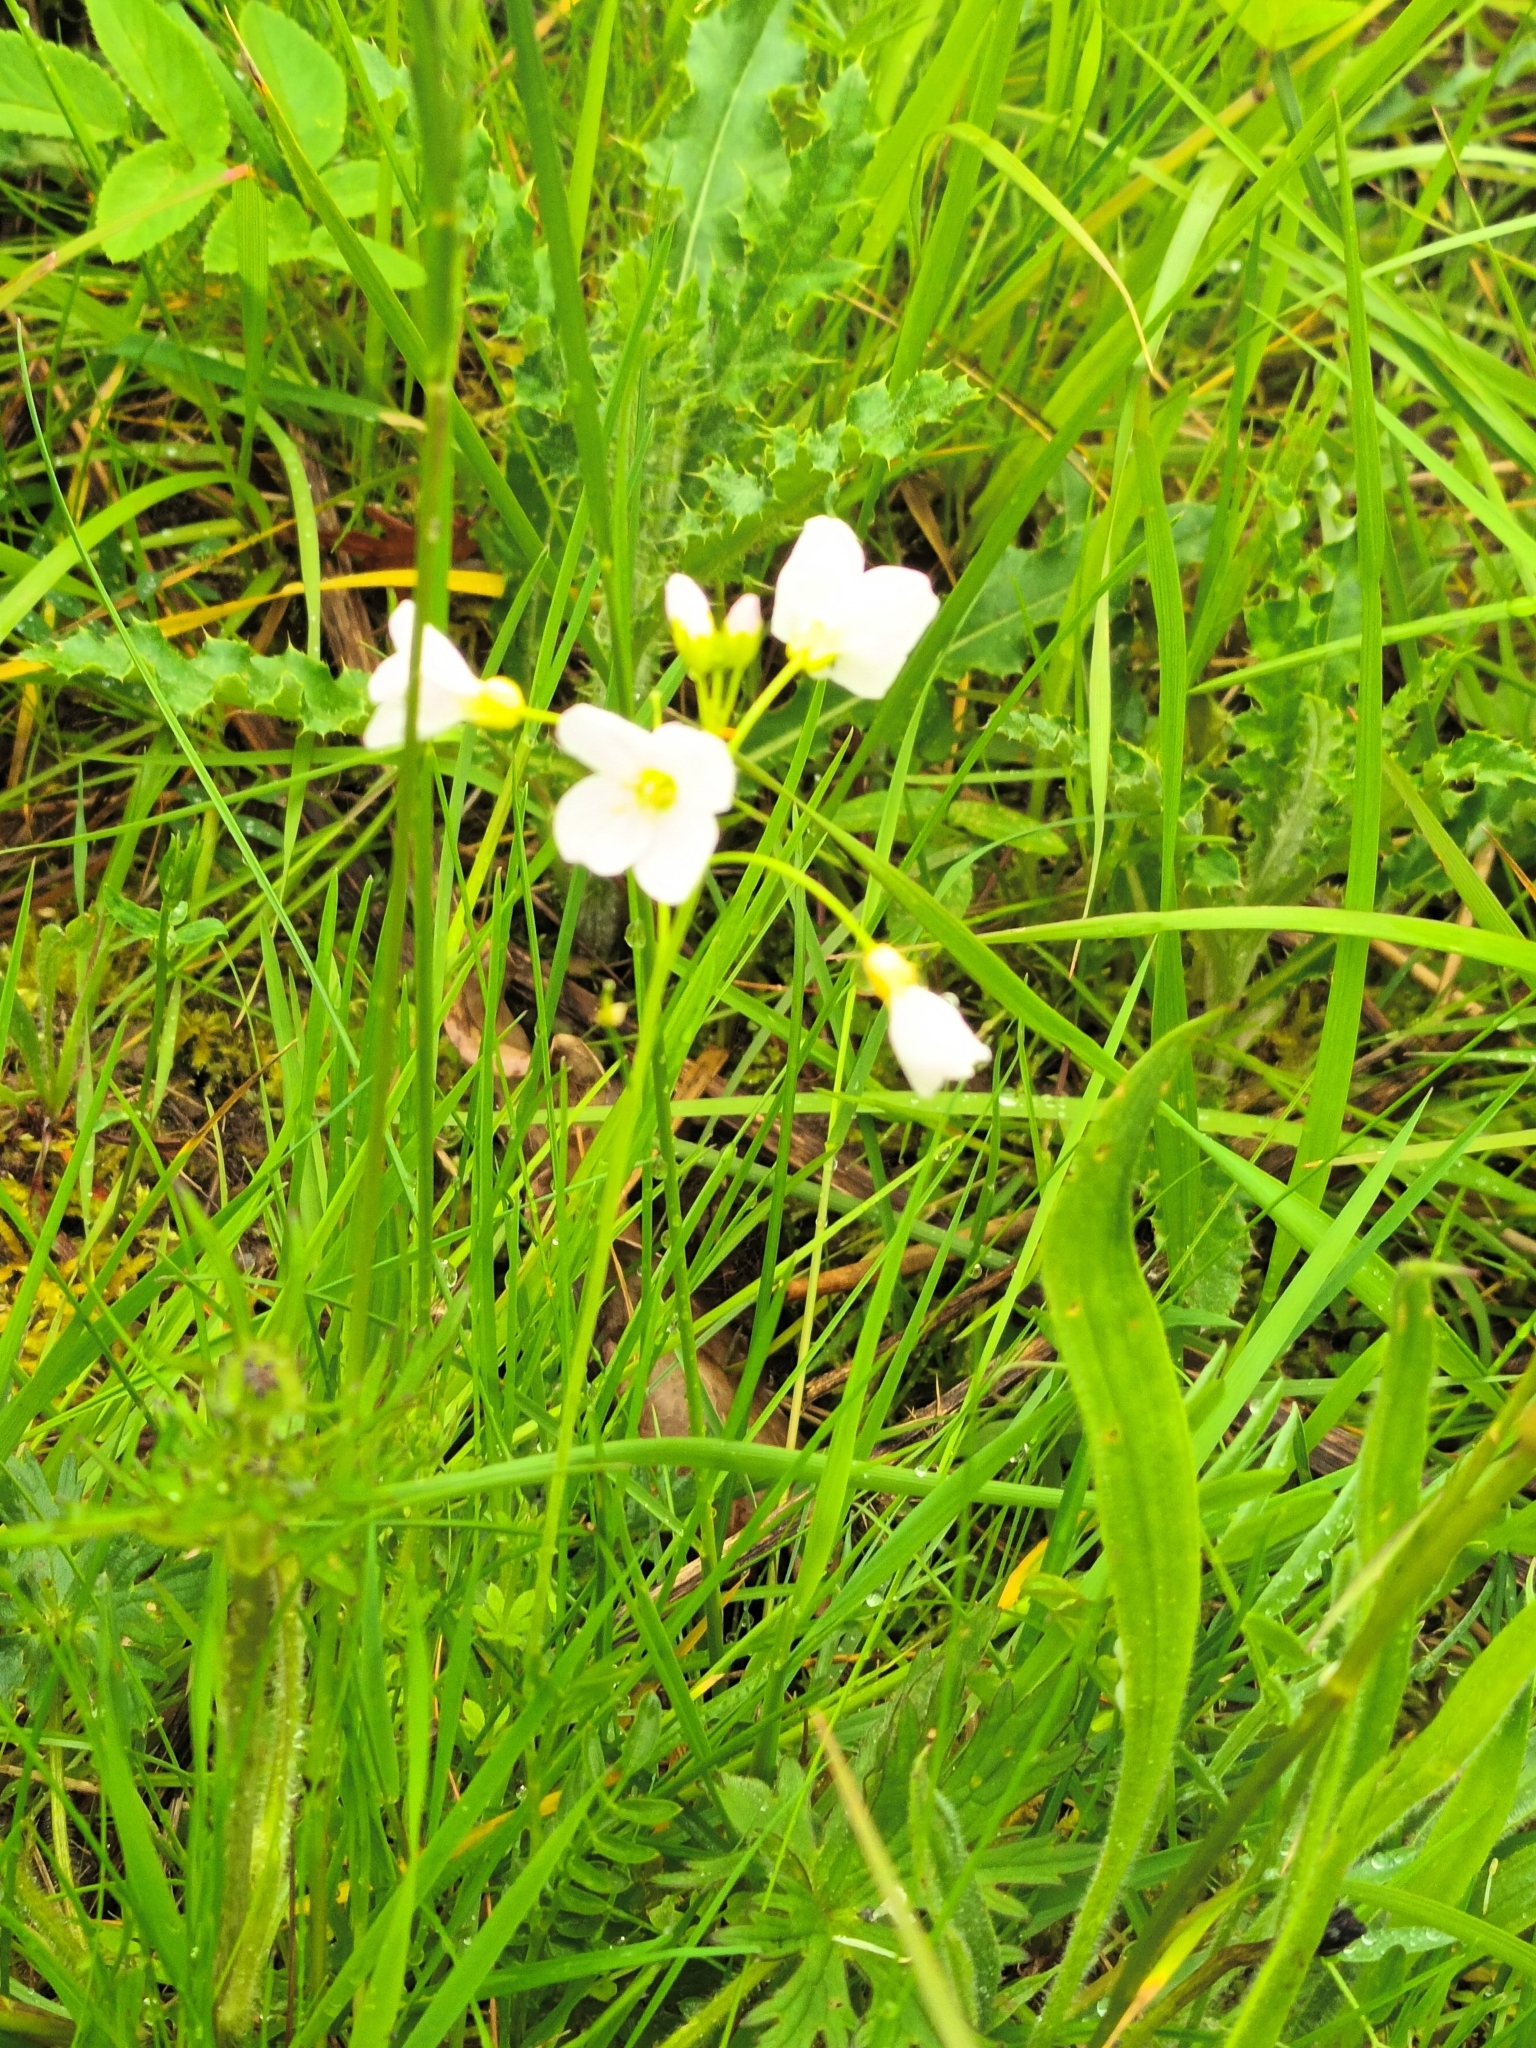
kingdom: Plantae
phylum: Tracheophyta
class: Magnoliopsida
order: Brassicales
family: Brassicaceae
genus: Cardamine
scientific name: Cardamine pratensis
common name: Cuckoo flower
